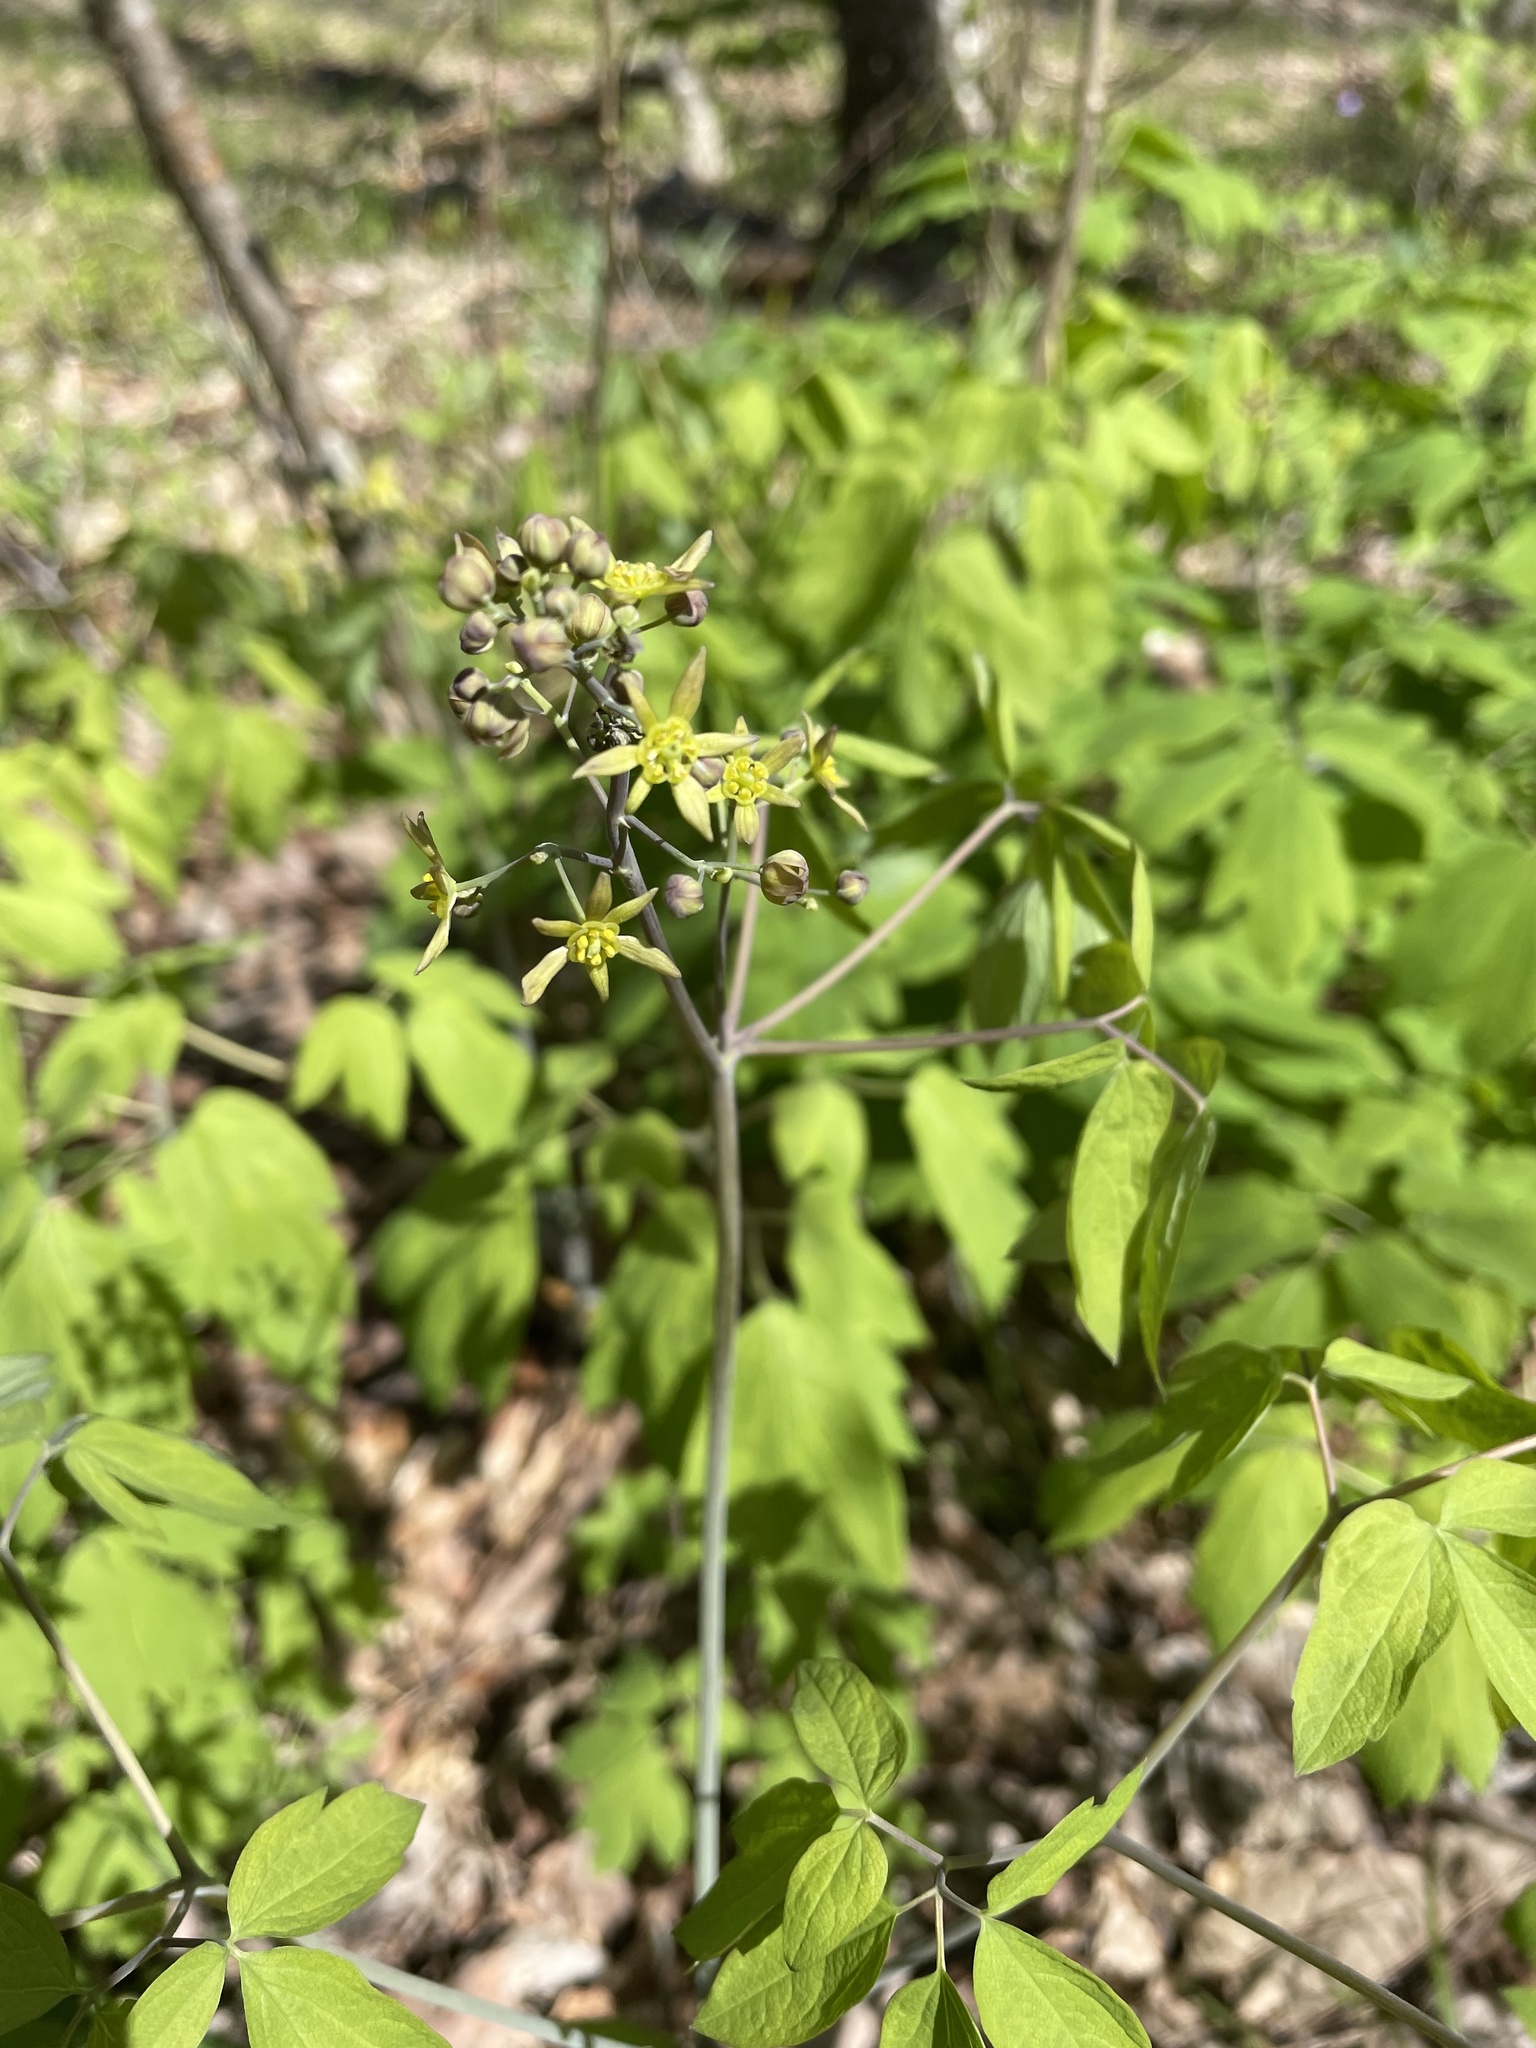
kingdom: Plantae
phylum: Tracheophyta
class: Magnoliopsida
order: Ranunculales
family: Berberidaceae
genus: Caulophyllum
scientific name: Caulophyllum thalictroides
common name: Blue cohosh
